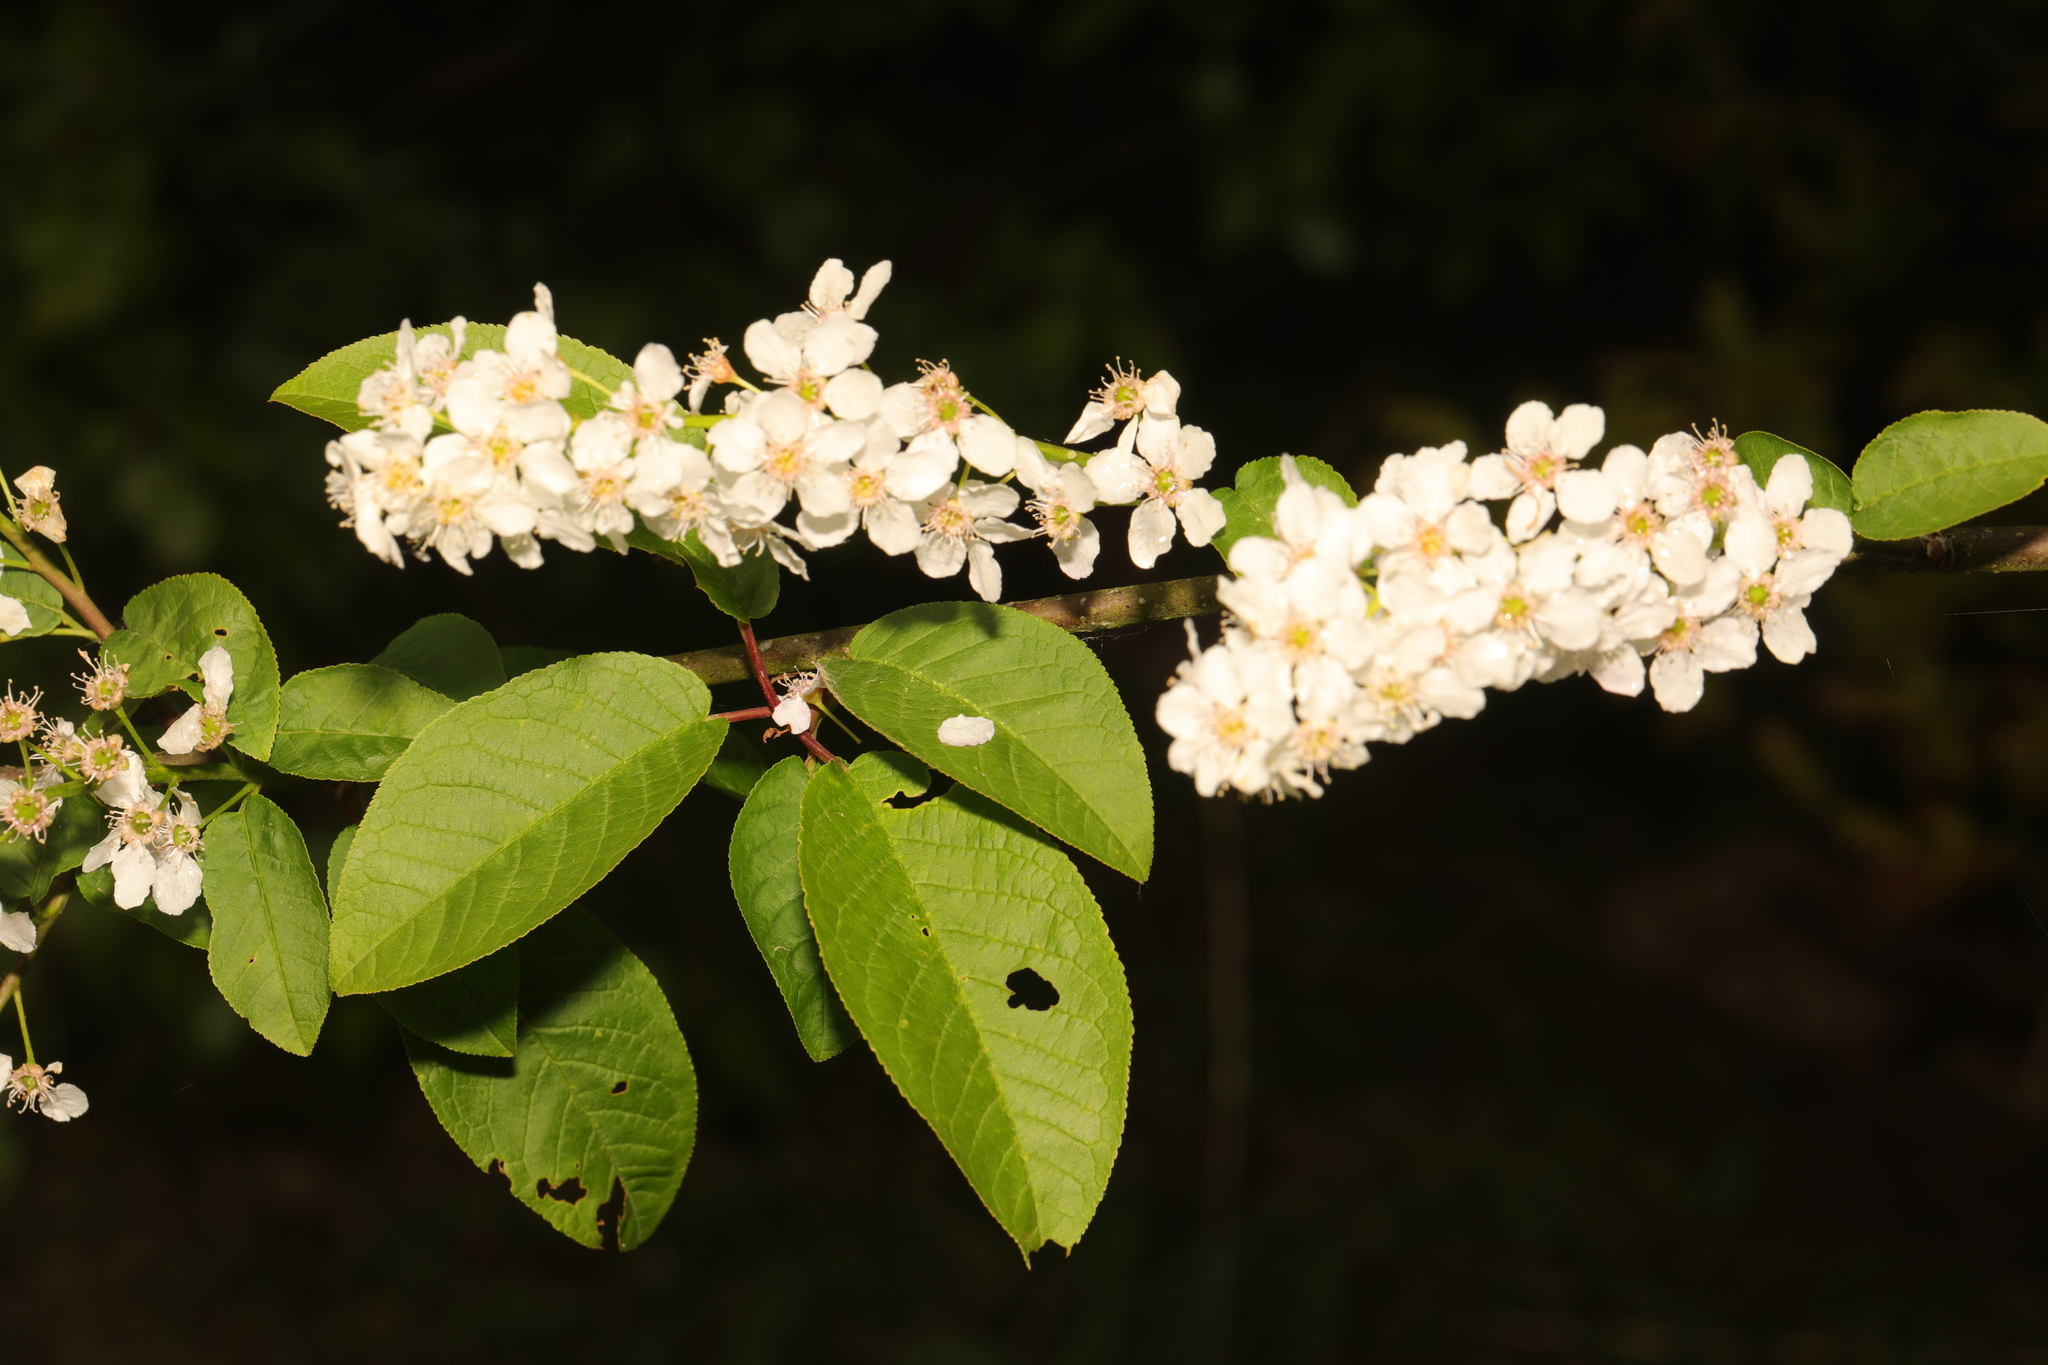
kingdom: Plantae
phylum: Tracheophyta
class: Magnoliopsida
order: Rosales
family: Rosaceae
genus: Prunus
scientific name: Prunus padus
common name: Bird cherry
